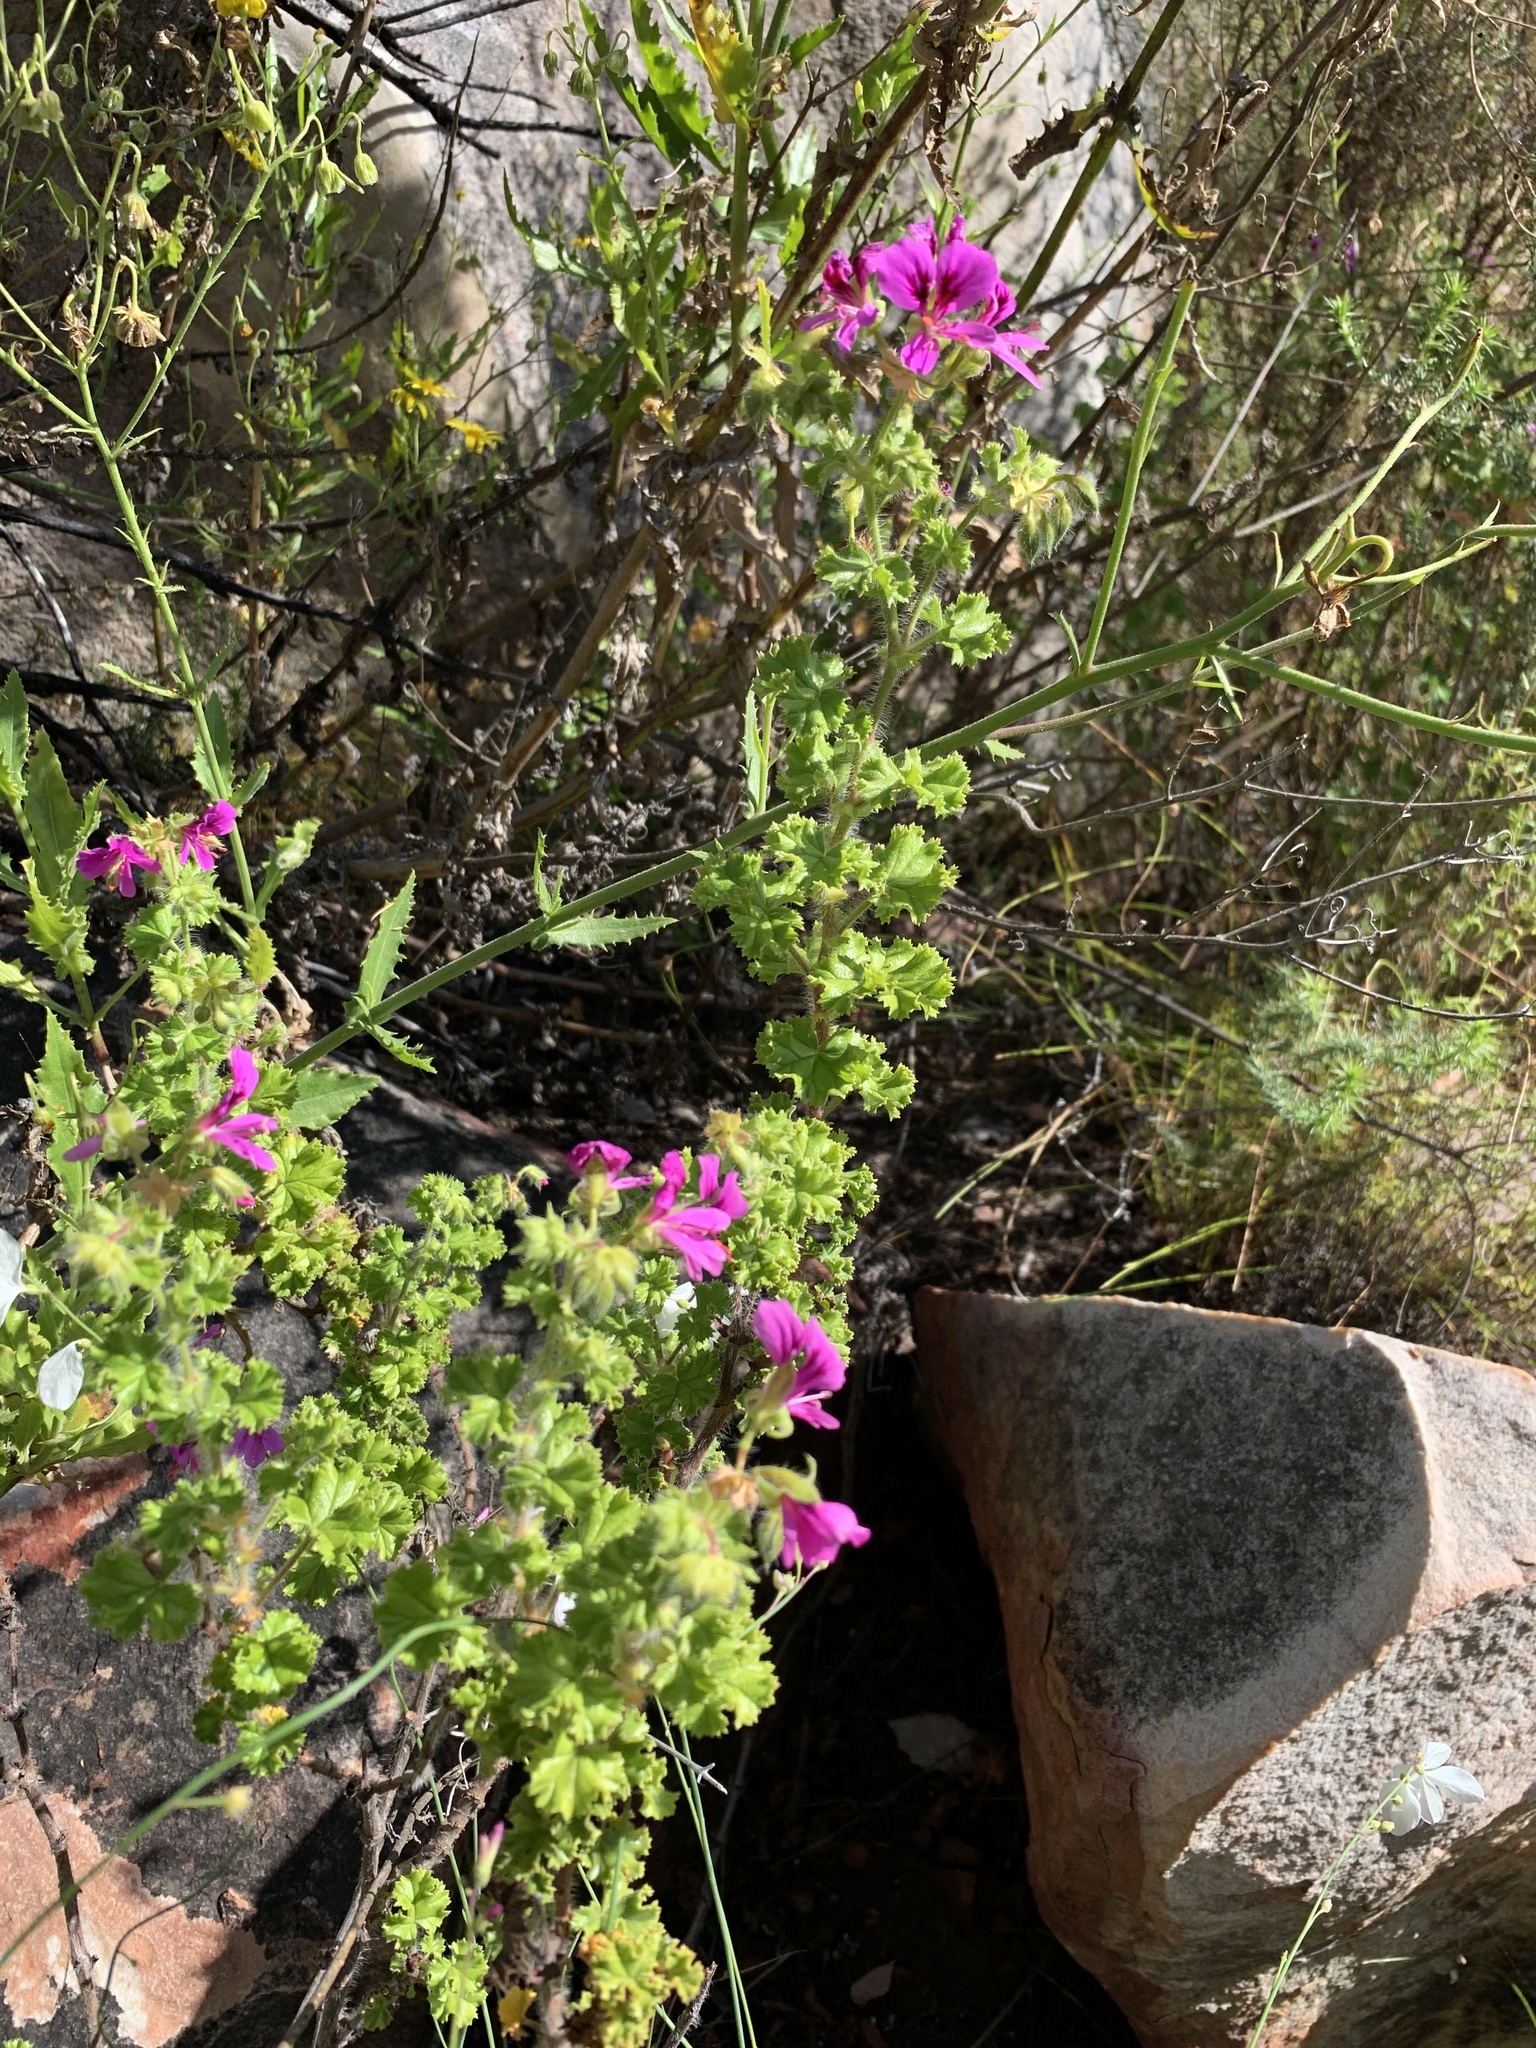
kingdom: Plantae
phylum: Tracheophyta
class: Magnoliopsida
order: Geraniales
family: Geraniaceae
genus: Pelargonium
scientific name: Pelargonium englerianum
